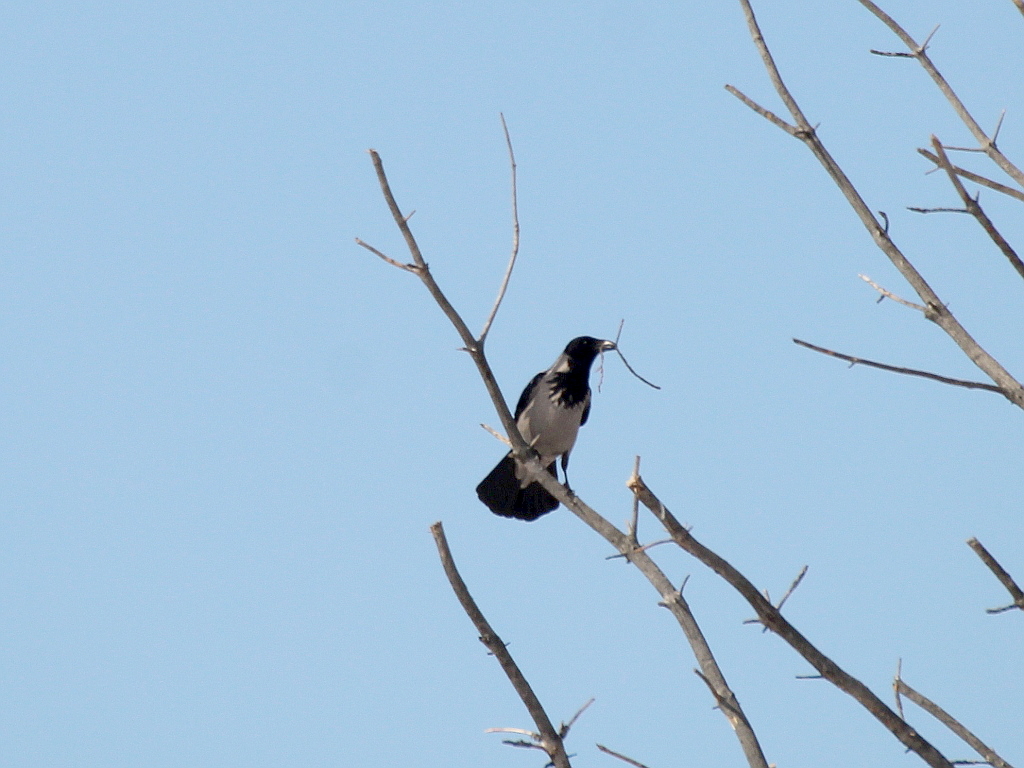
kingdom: Animalia
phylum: Chordata
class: Aves
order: Passeriformes
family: Corvidae
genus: Corvus
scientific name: Corvus cornix
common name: Hooded crow
